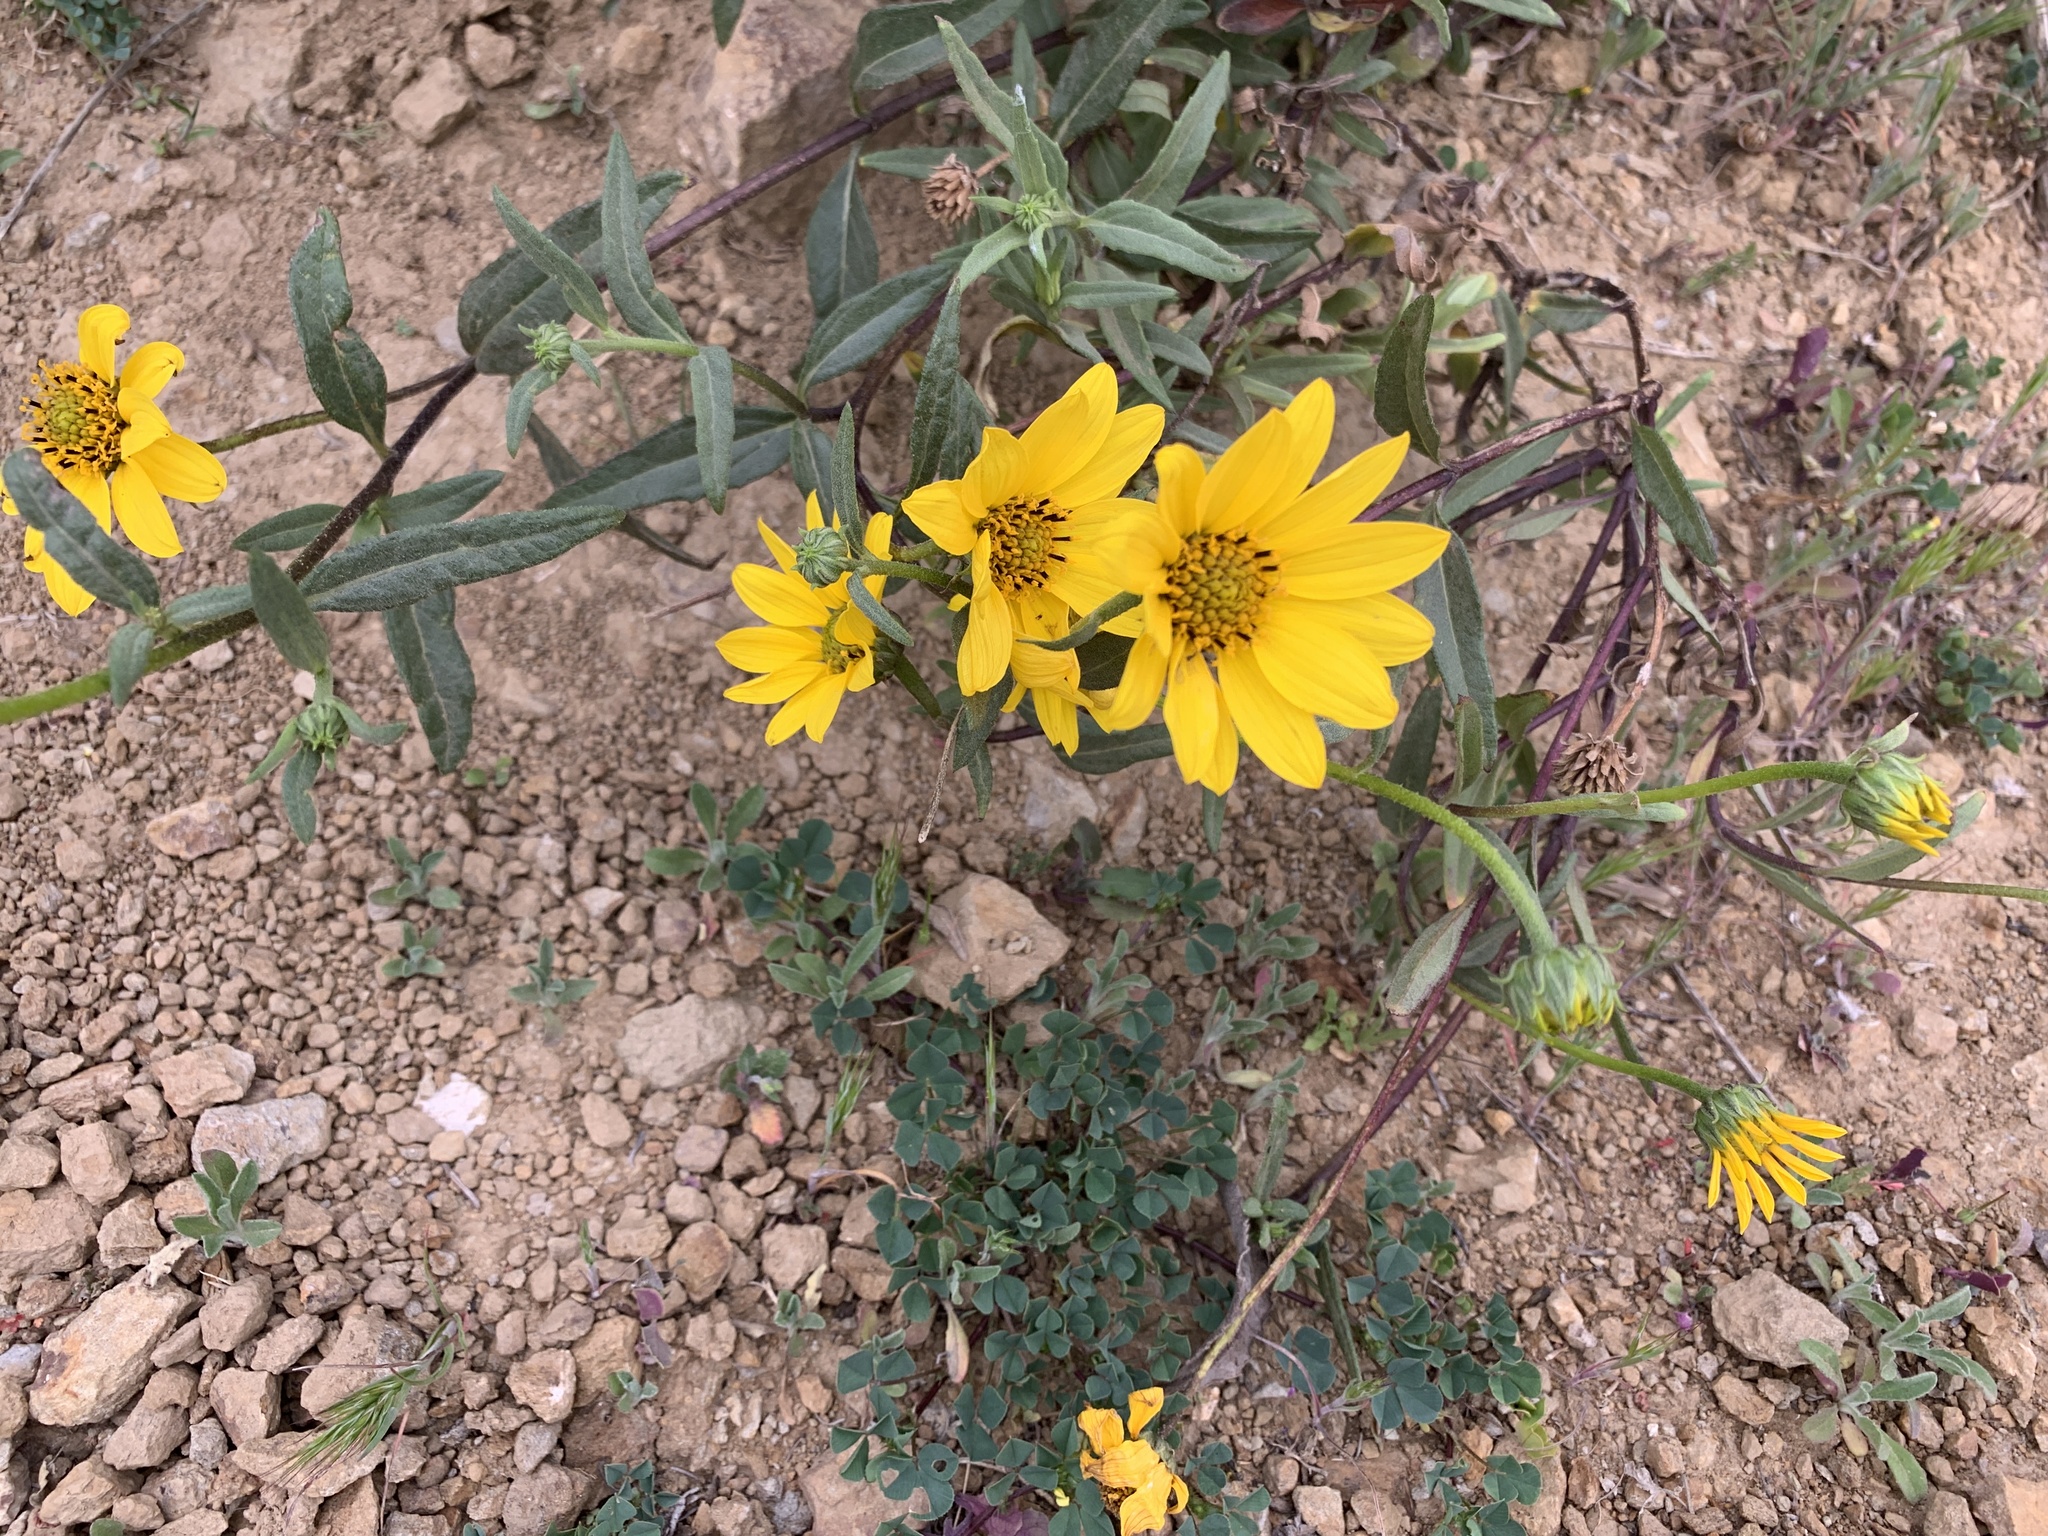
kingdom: Plantae
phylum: Tracheophyta
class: Magnoliopsida
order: Asterales
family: Asteraceae
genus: Helianthus
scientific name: Helianthus gracilentus
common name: Slender sunflower
